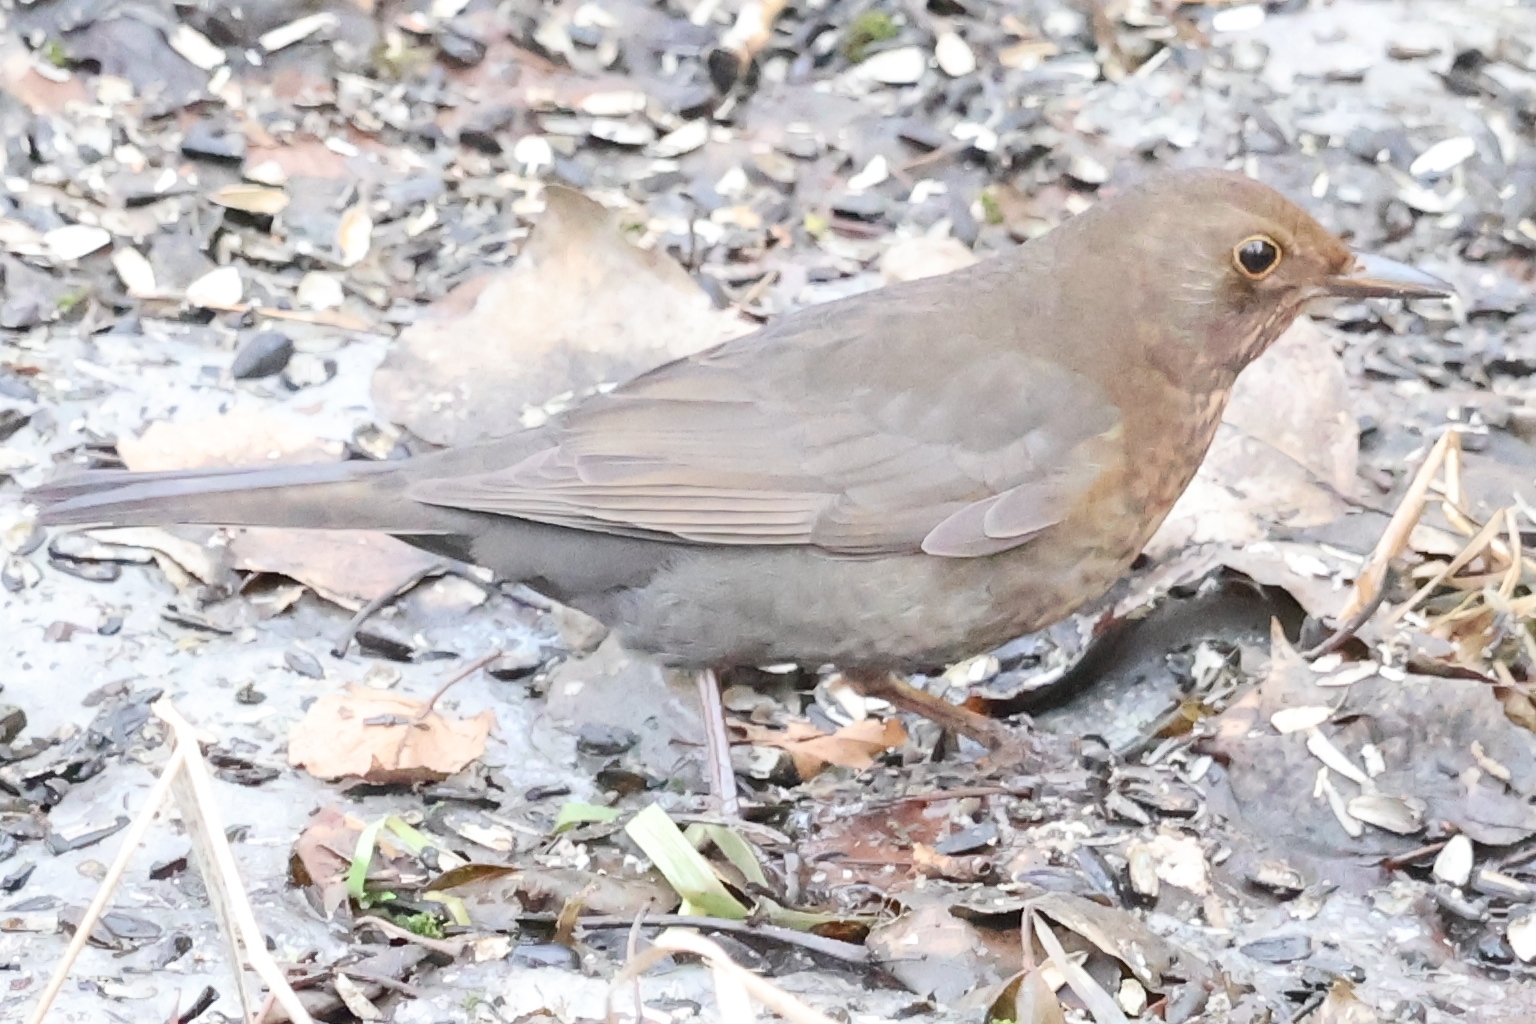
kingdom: Animalia
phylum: Chordata
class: Aves
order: Passeriformes
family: Turdidae
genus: Turdus
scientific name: Turdus merula
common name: Common blackbird
